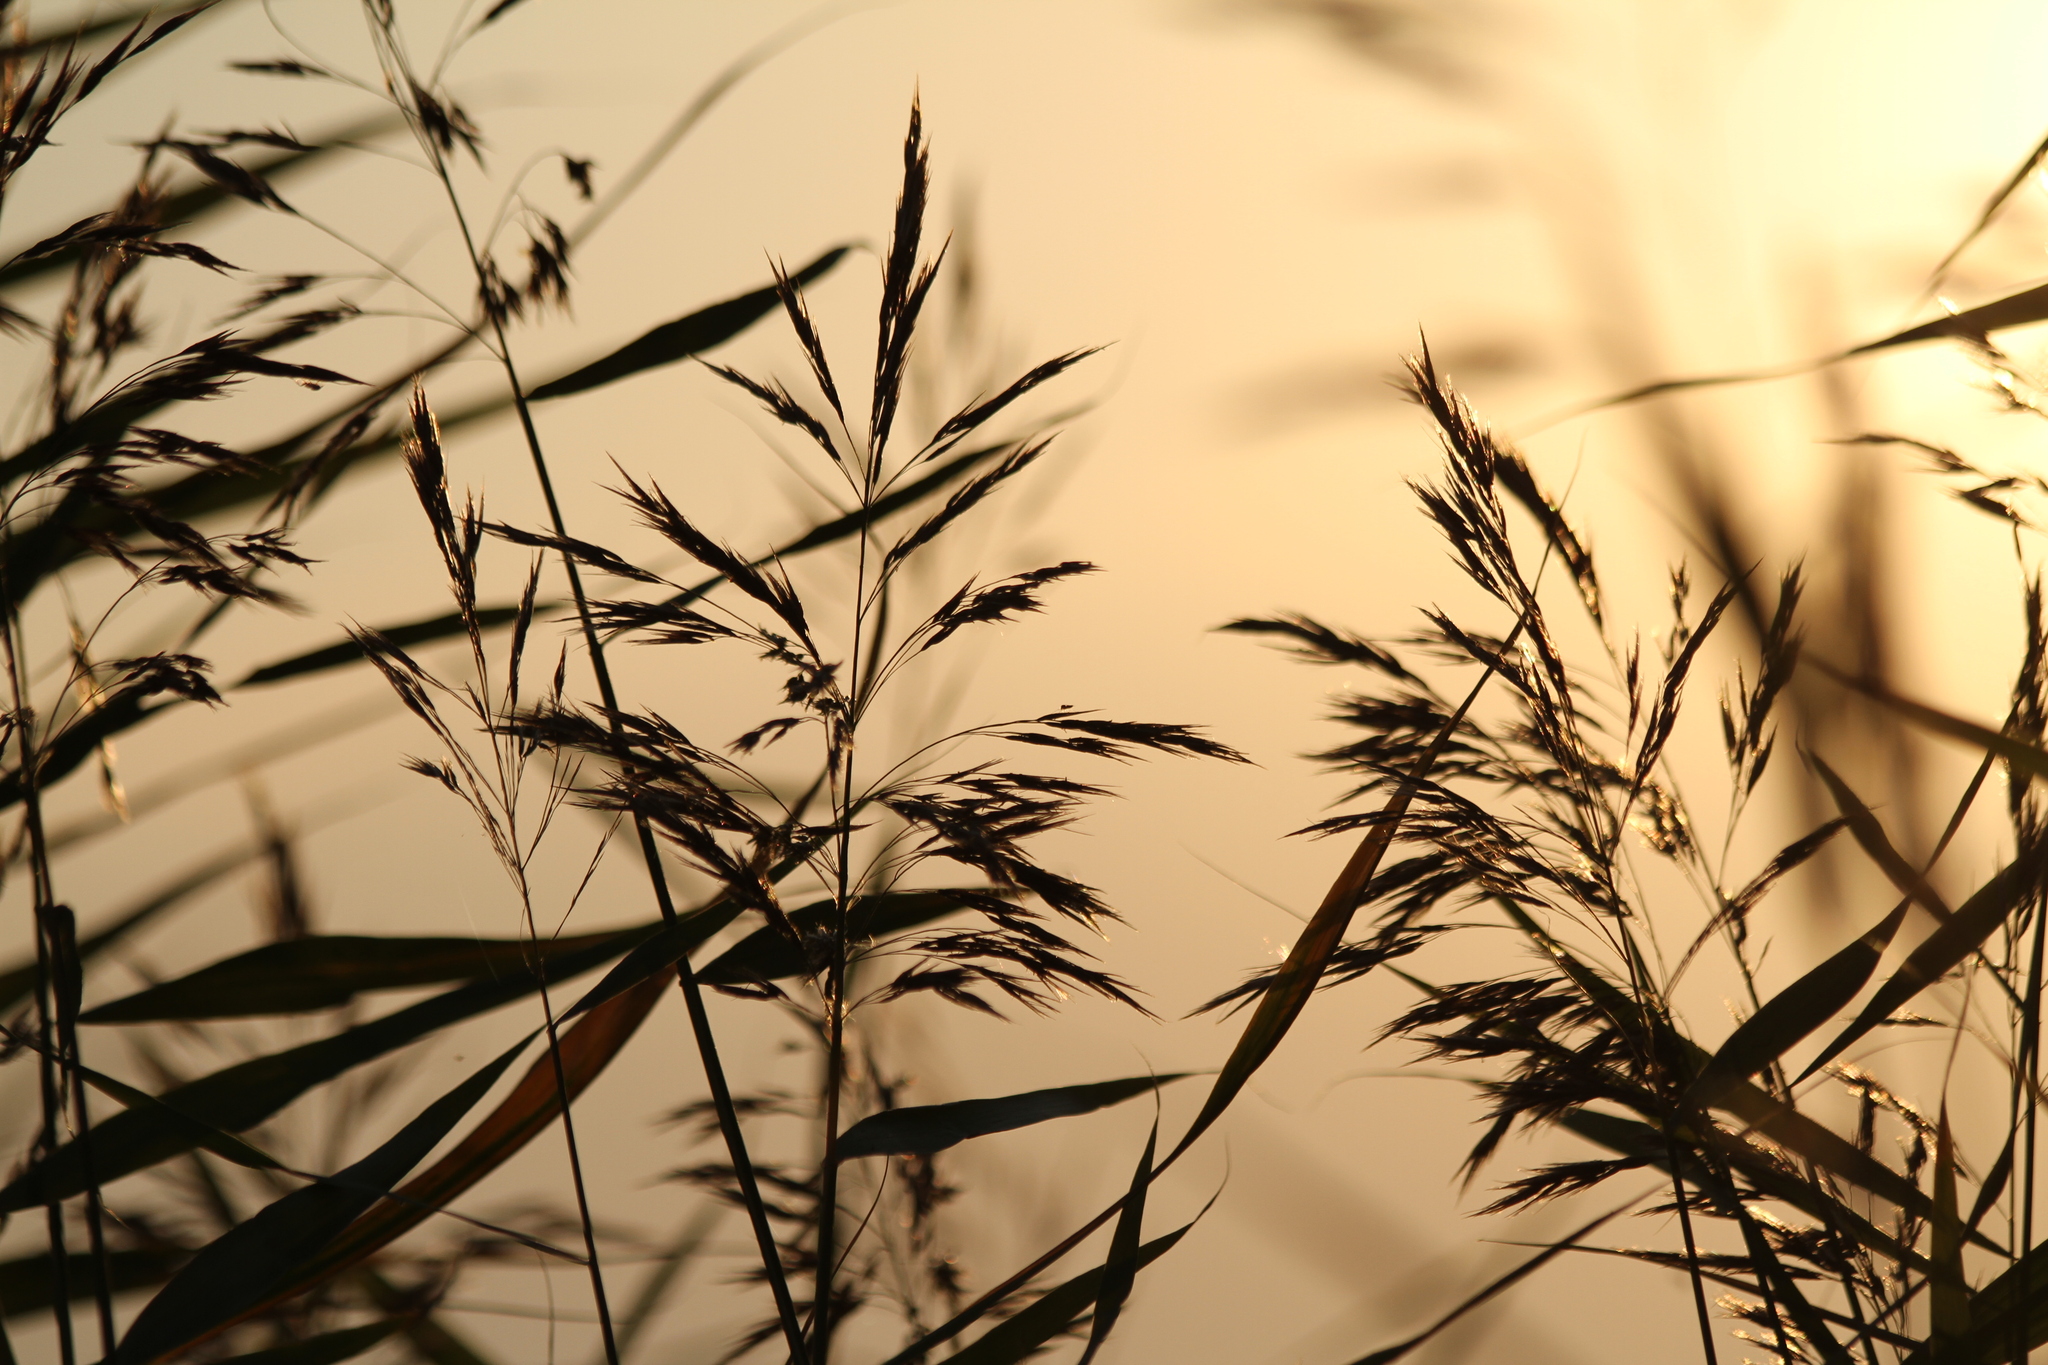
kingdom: Plantae
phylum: Tracheophyta
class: Liliopsida
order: Poales
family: Poaceae
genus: Phragmites
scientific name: Phragmites australis
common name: Common reed
